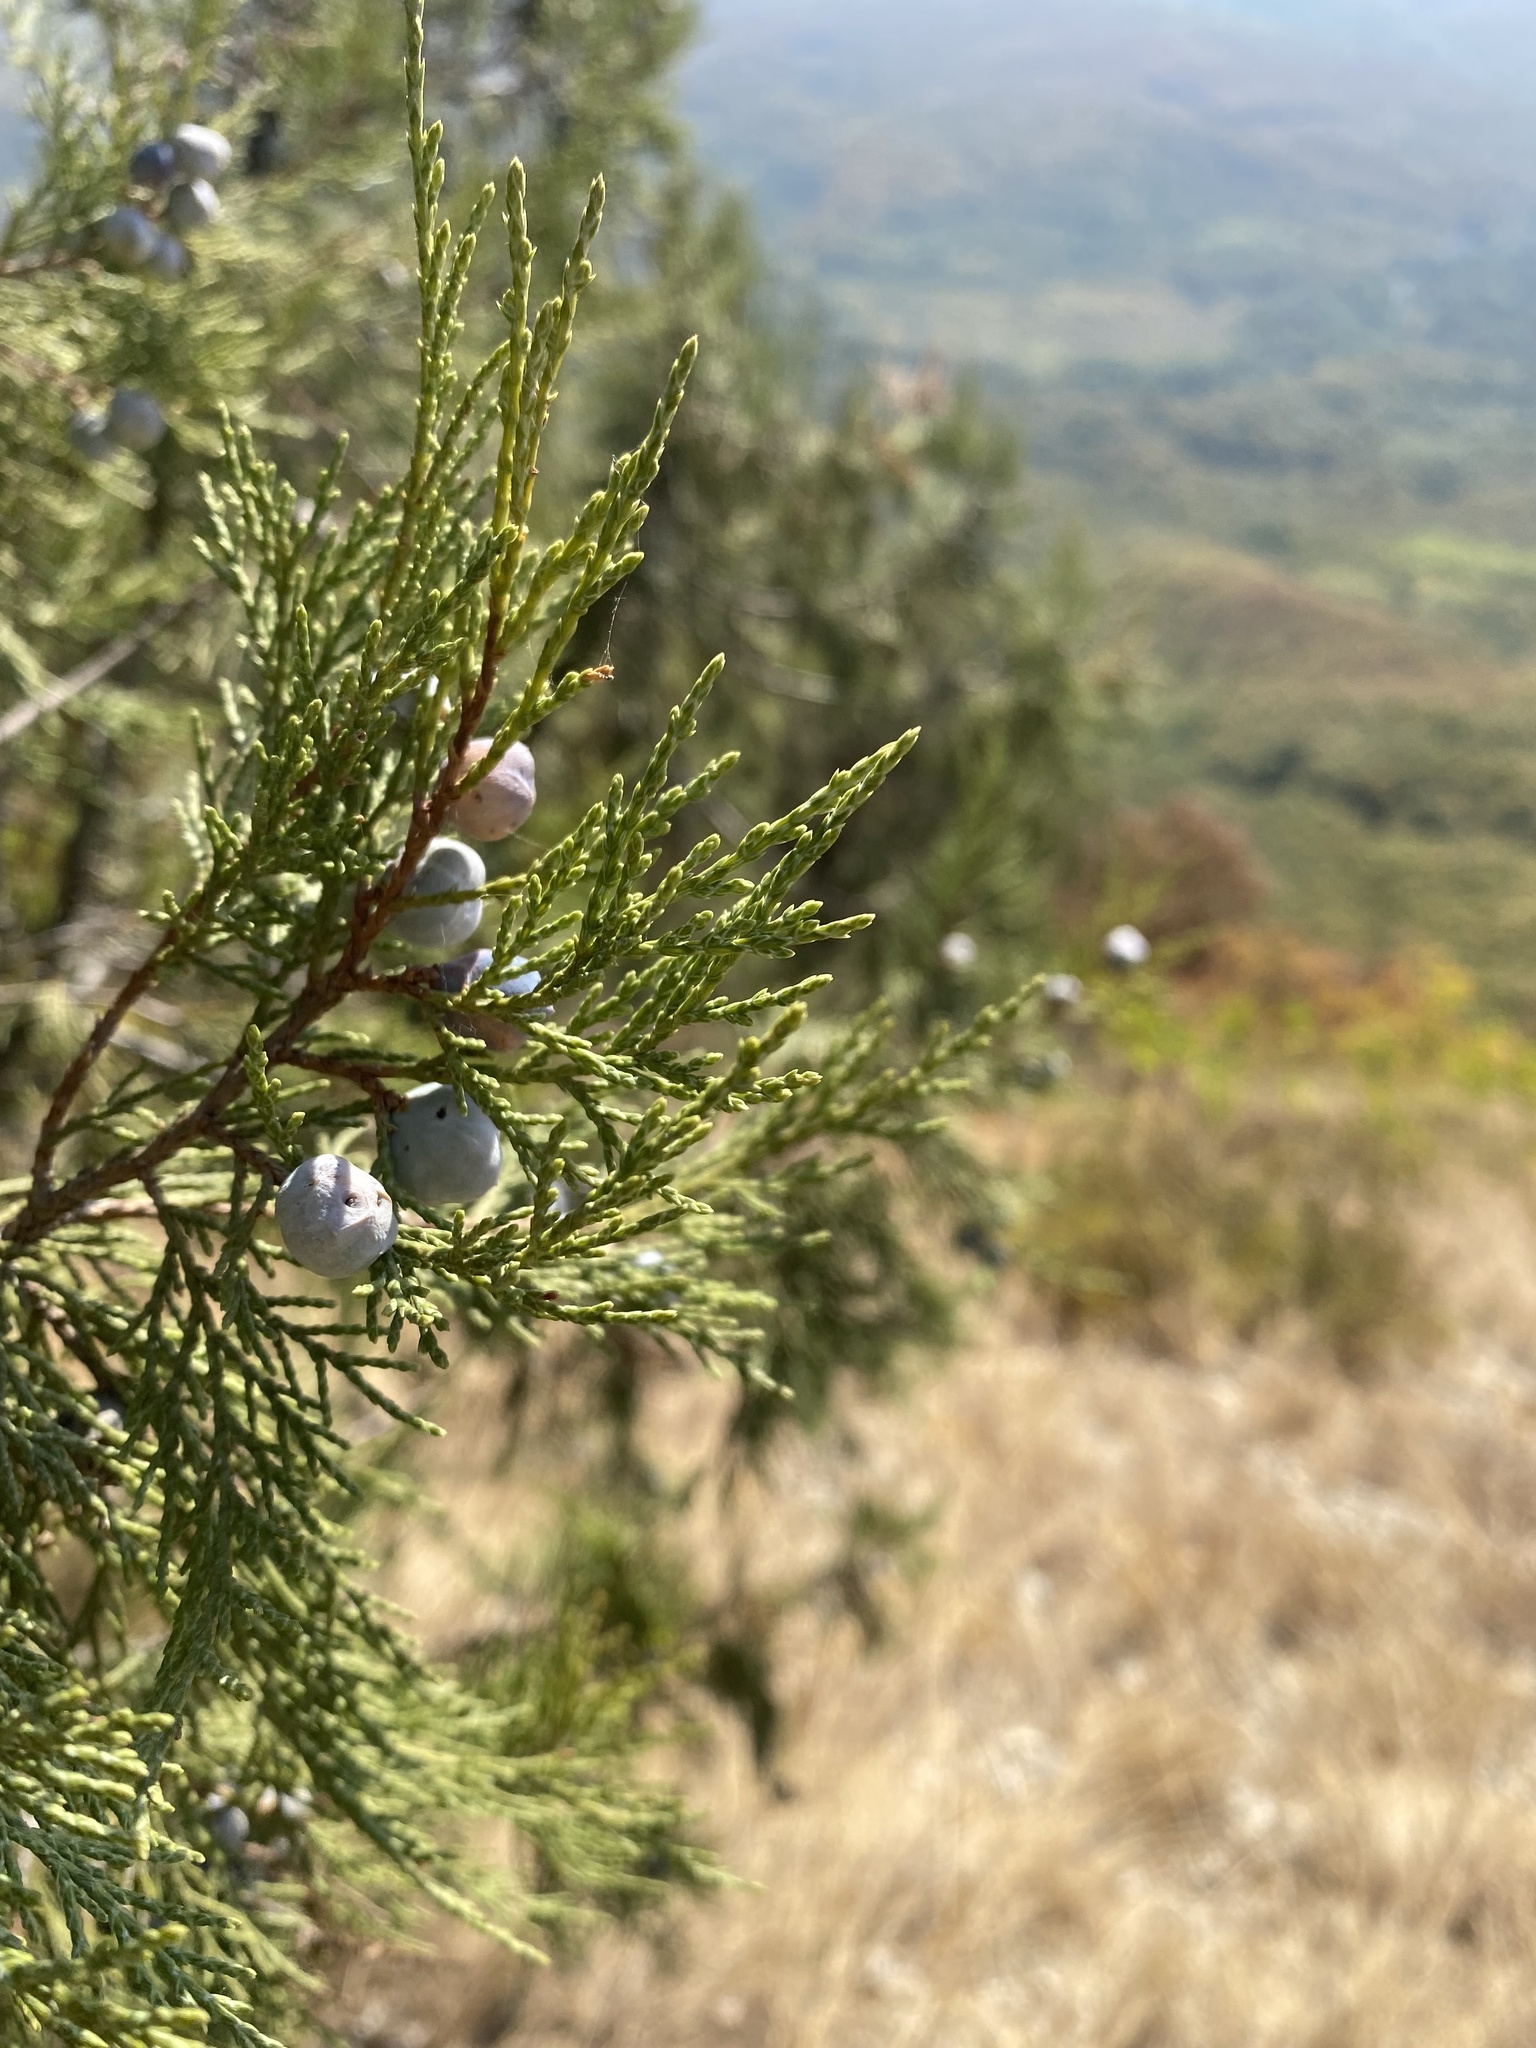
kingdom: Plantae
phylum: Tracheophyta
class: Pinopsida
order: Pinales
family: Cupressaceae
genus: Juniperus
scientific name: Juniperus excelsa
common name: Crimean juniper
